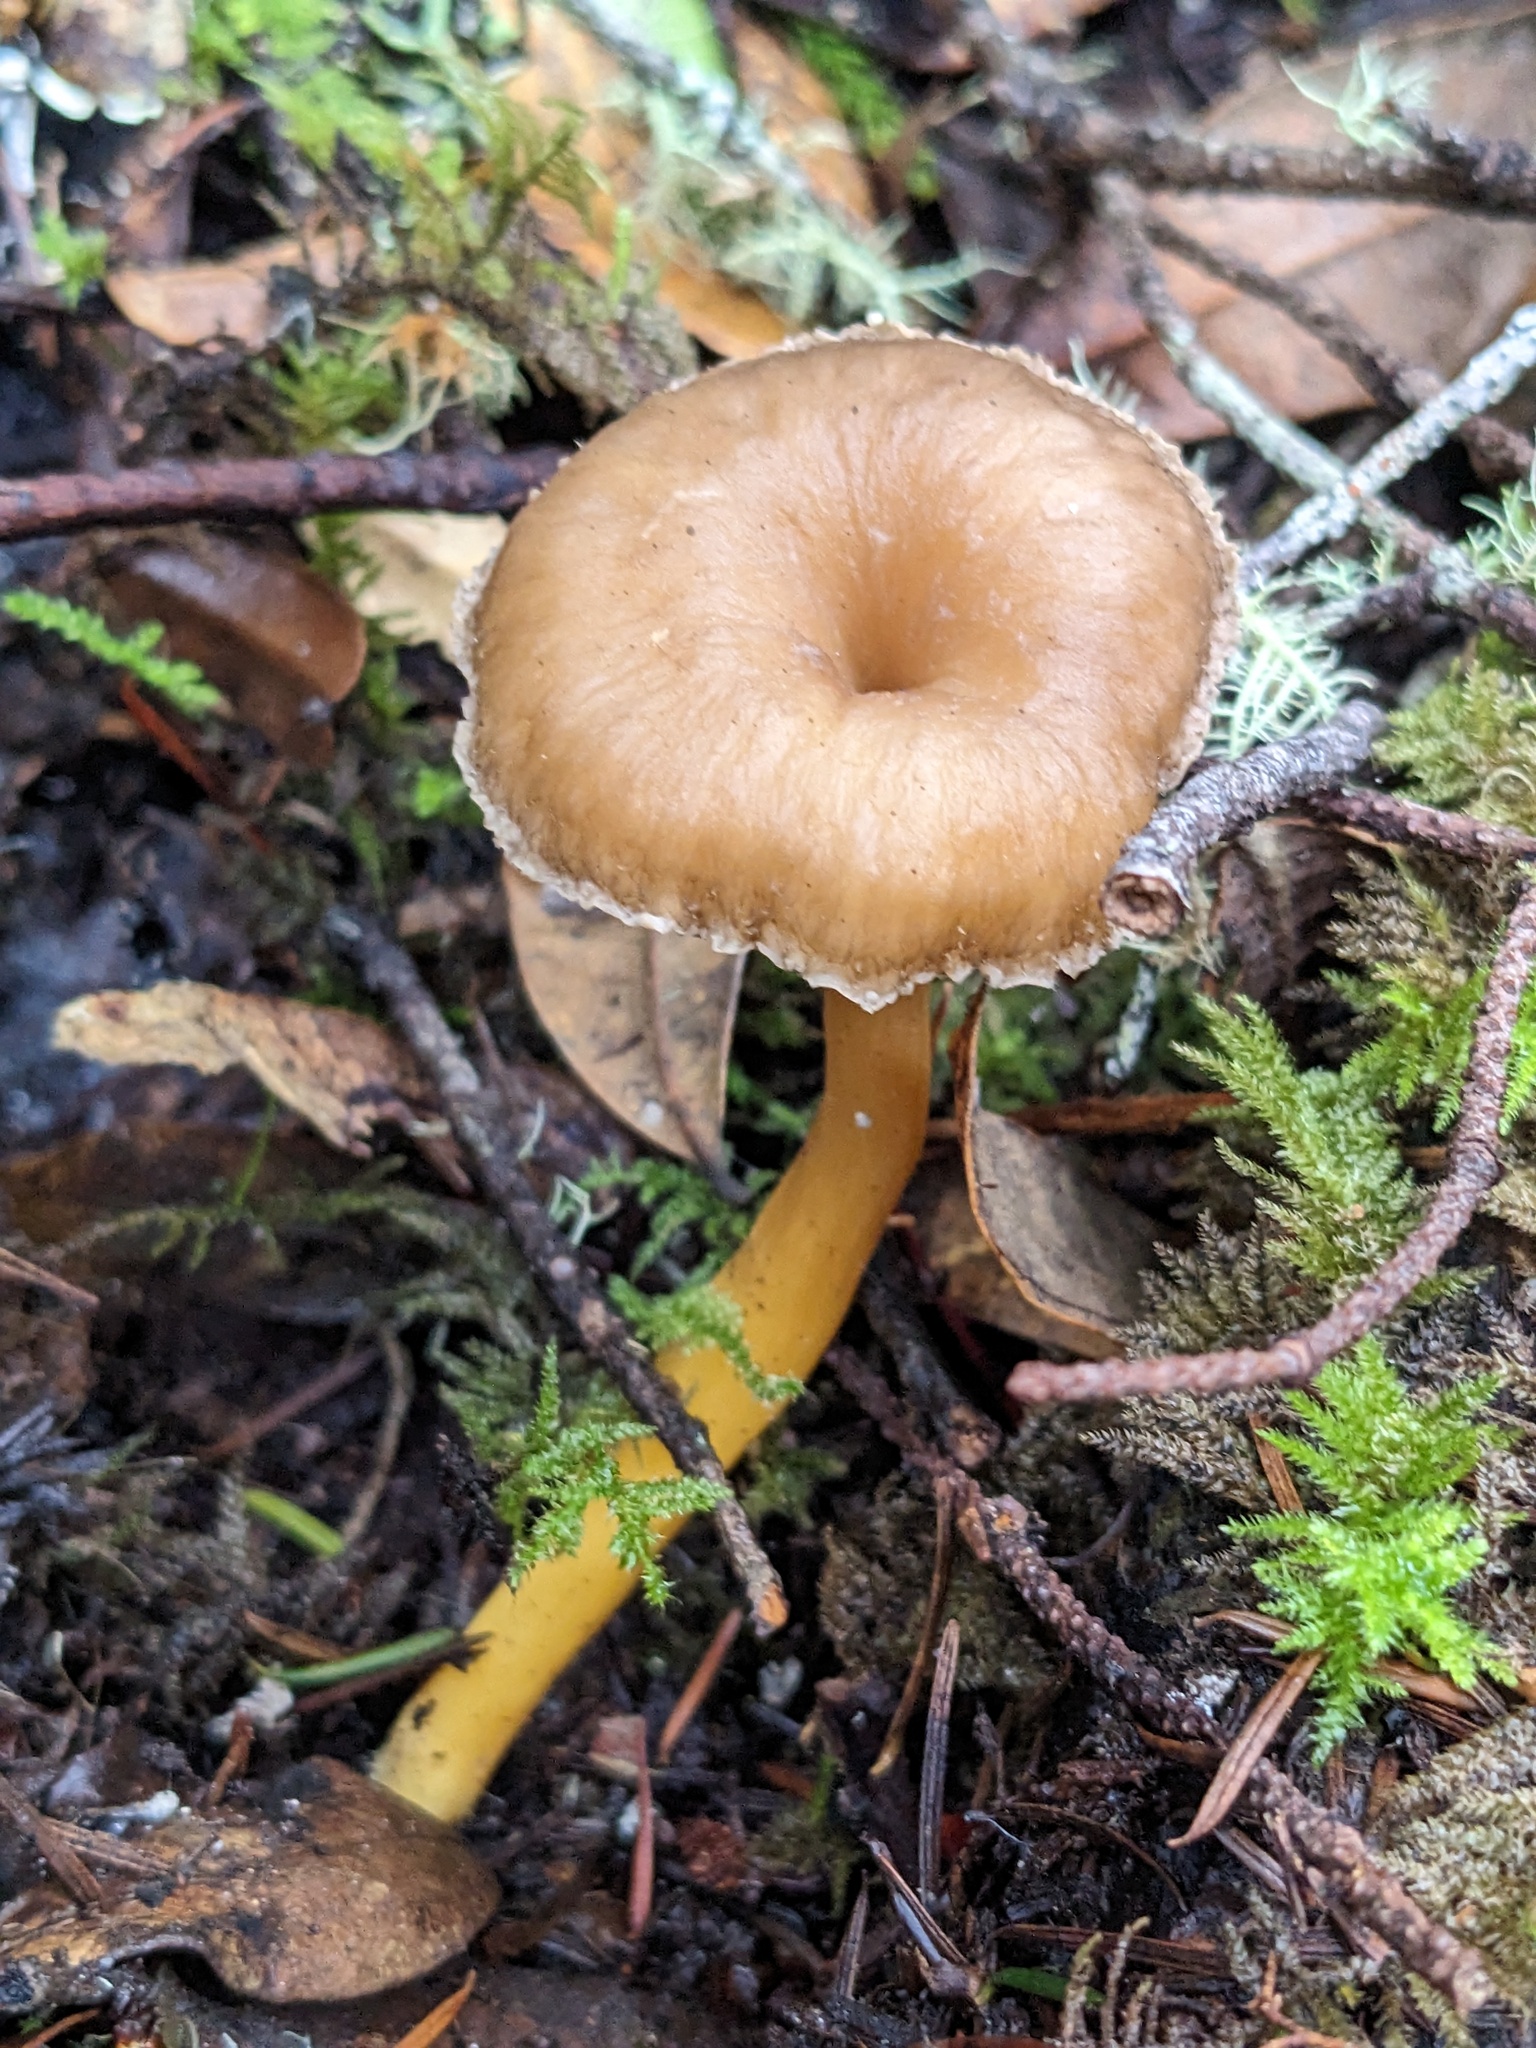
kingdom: Fungi
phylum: Basidiomycota
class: Agaricomycetes
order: Cantharellales
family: Hydnaceae
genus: Craterellus
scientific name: Craterellus tubaeformis
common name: Yellowfoot
